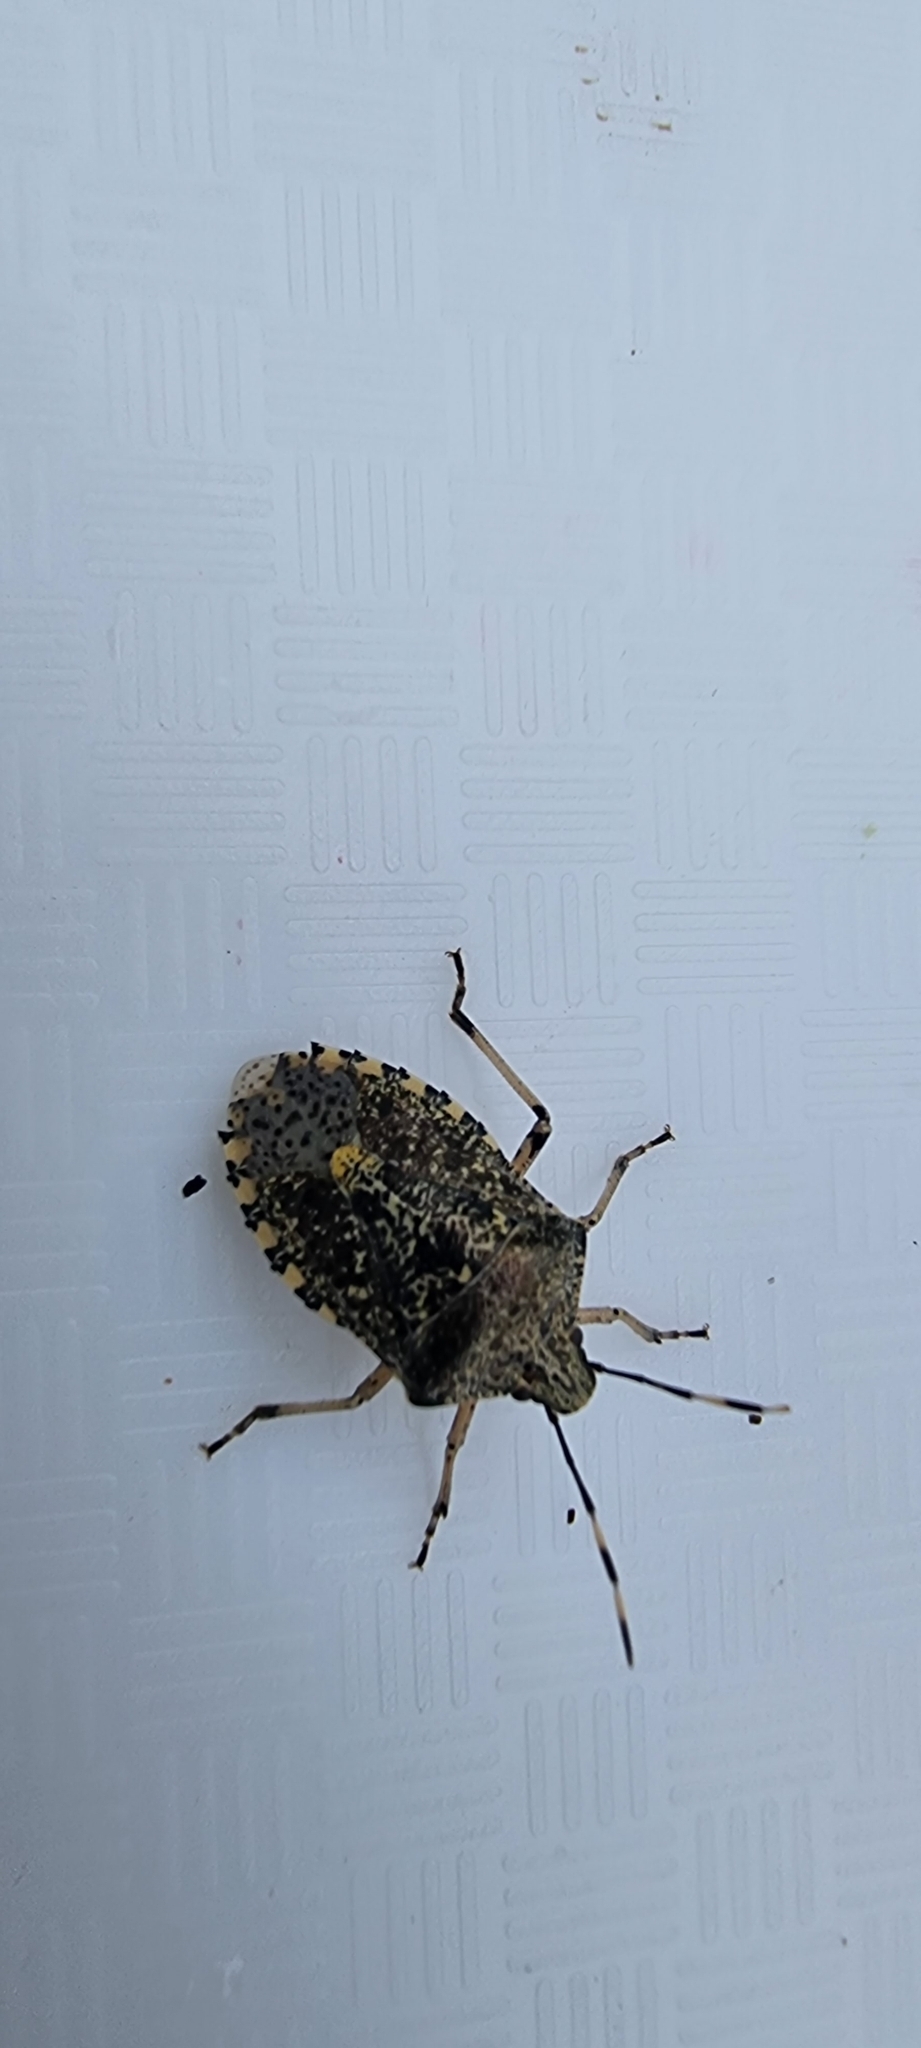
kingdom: Animalia
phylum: Arthropoda
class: Insecta
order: Hemiptera
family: Pentatomidae
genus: Rhaphigaster
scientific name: Rhaphigaster nebulosa
